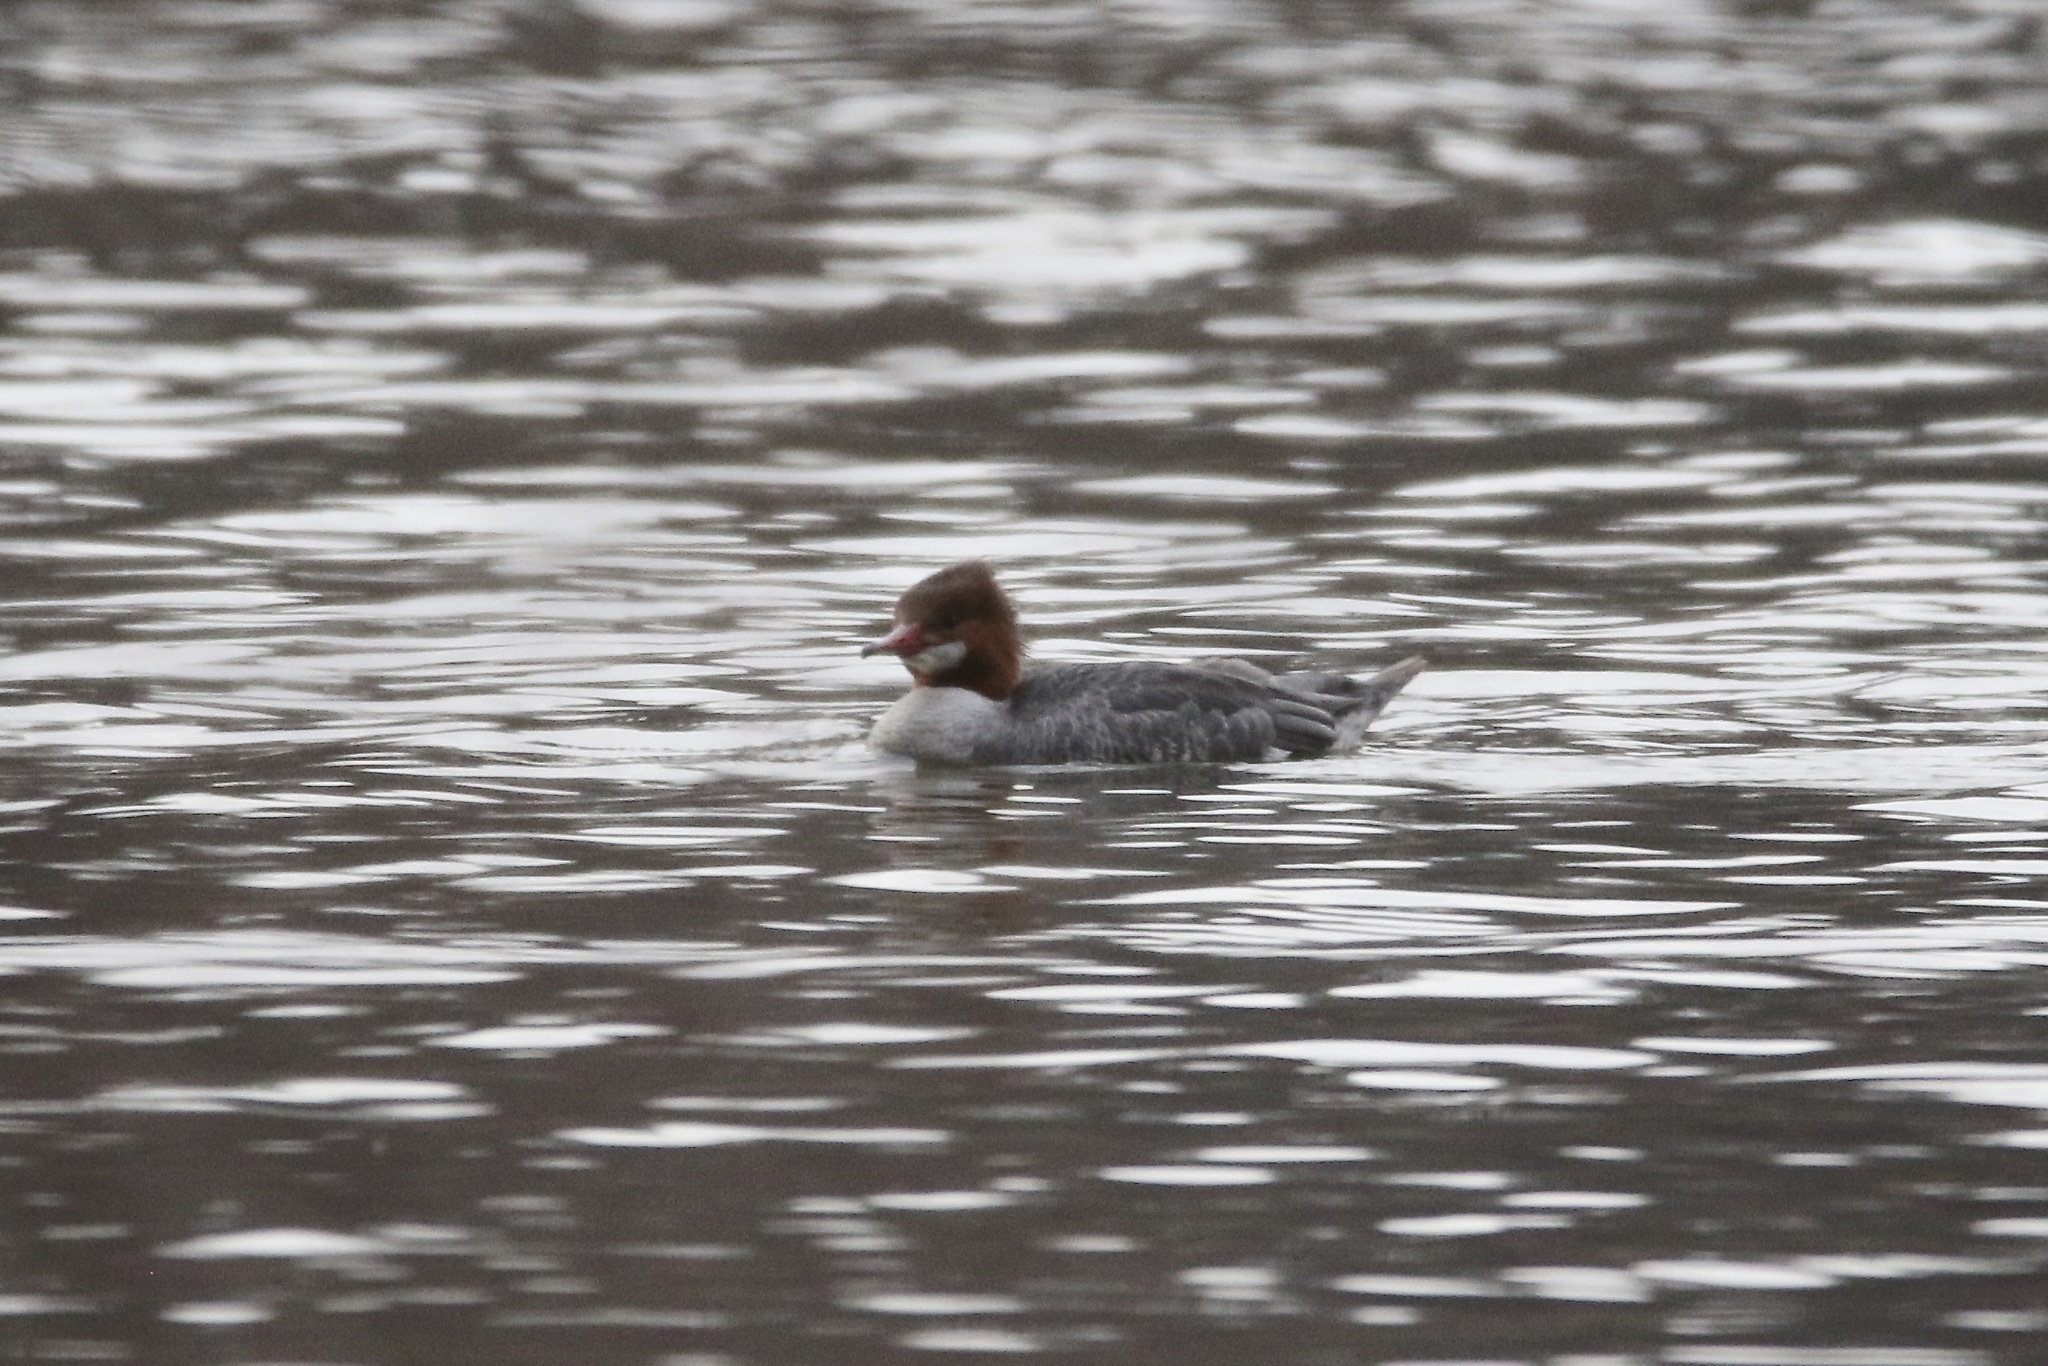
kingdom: Animalia
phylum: Chordata
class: Aves
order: Anseriformes
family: Anatidae
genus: Mergus
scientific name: Mergus merganser
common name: Common merganser
